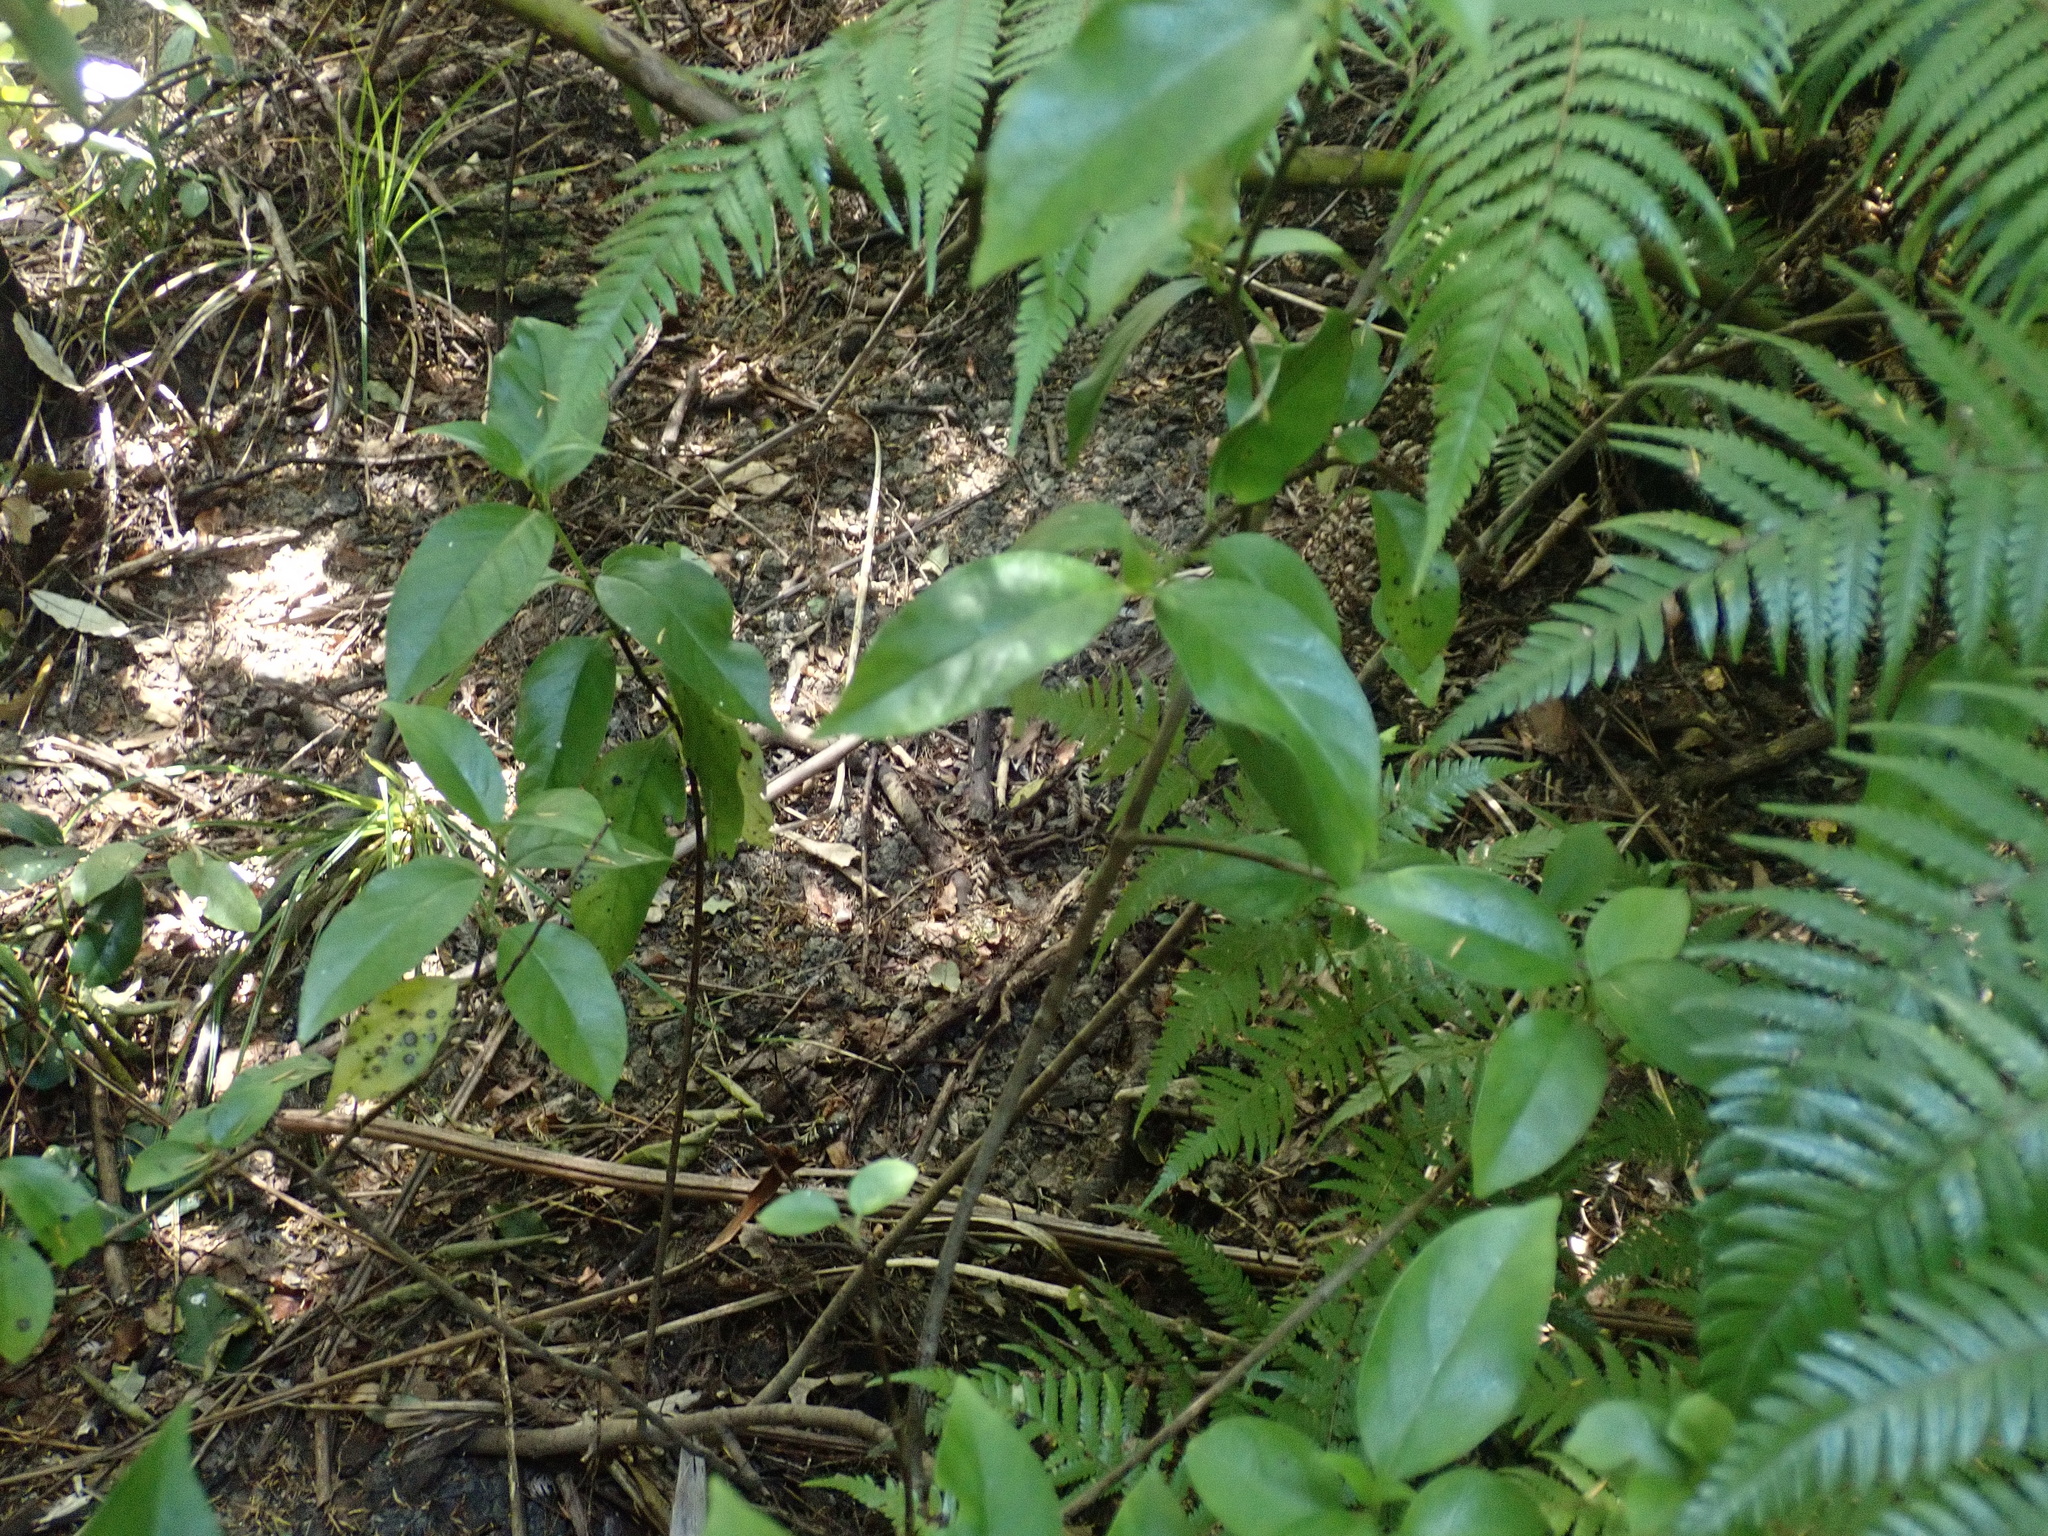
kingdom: Plantae
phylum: Tracheophyta
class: Magnoliopsida
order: Gentianales
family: Loganiaceae
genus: Geniostoma
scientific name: Geniostoma ligustrifolium
